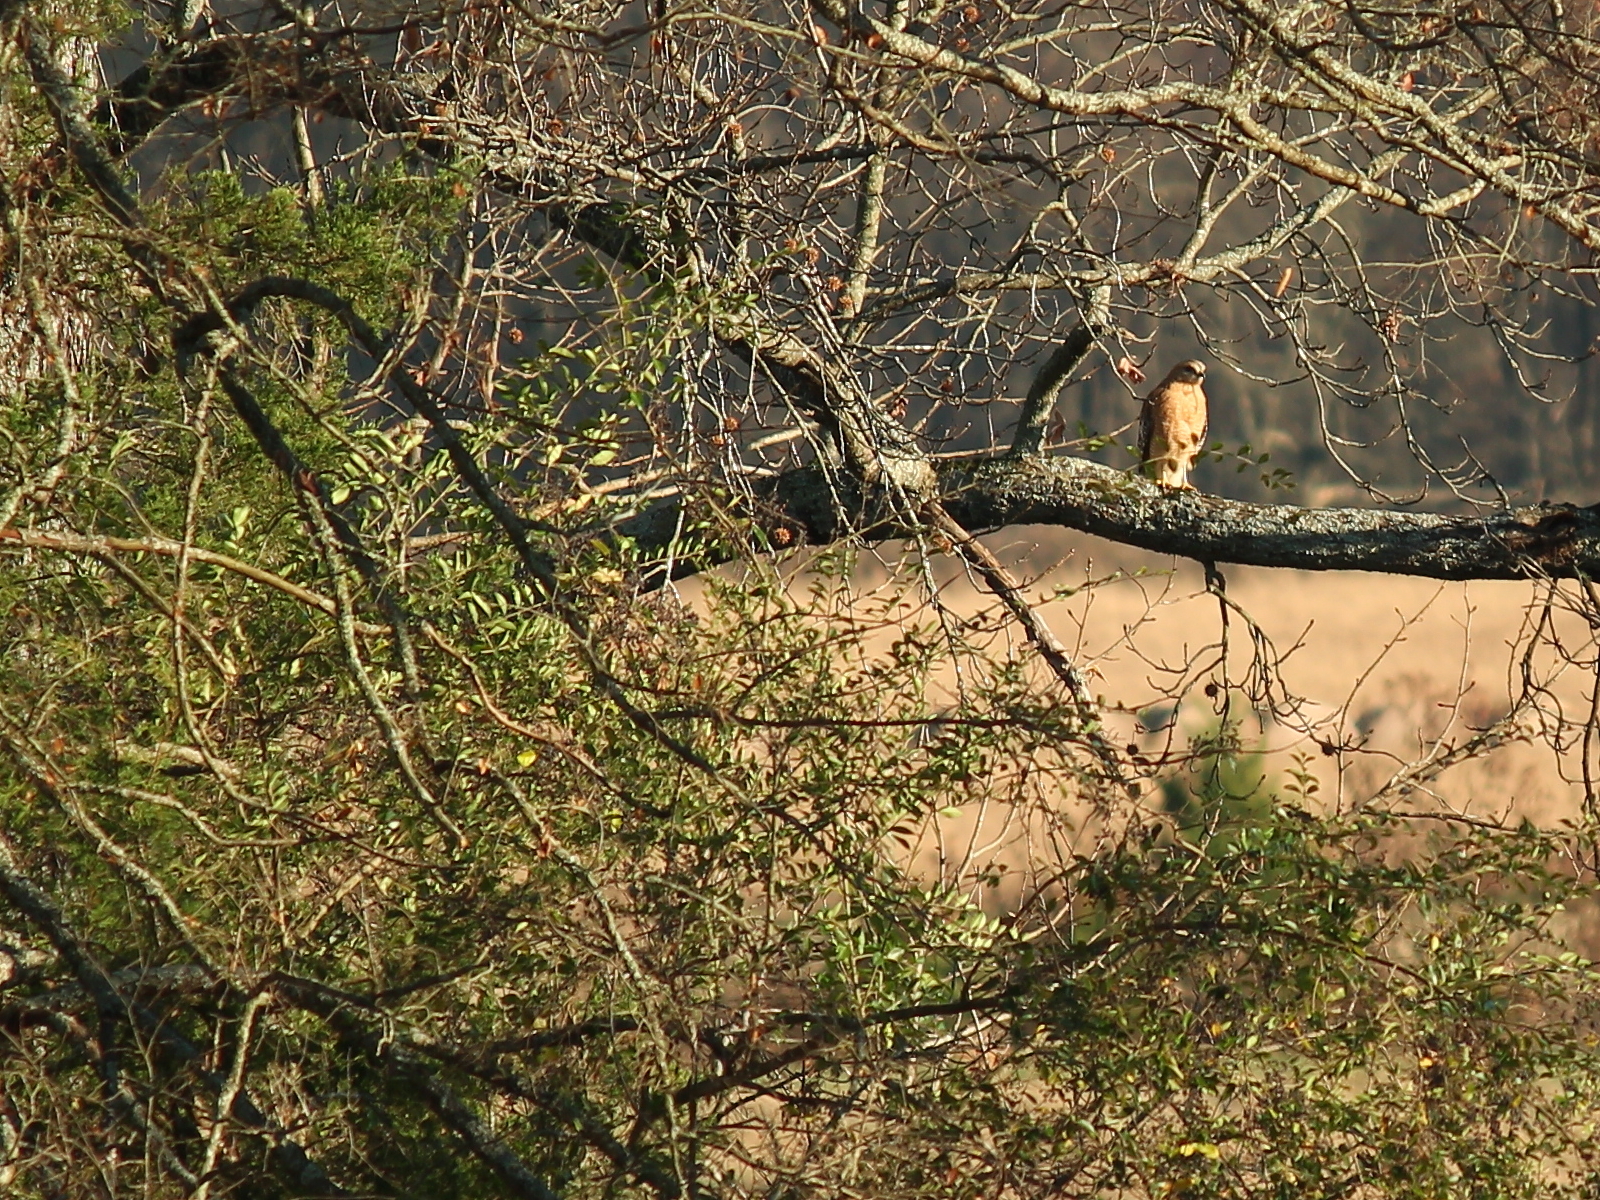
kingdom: Animalia
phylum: Chordata
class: Aves
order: Accipitriformes
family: Accipitridae
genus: Buteo
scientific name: Buteo lineatus
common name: Red-shouldered hawk
